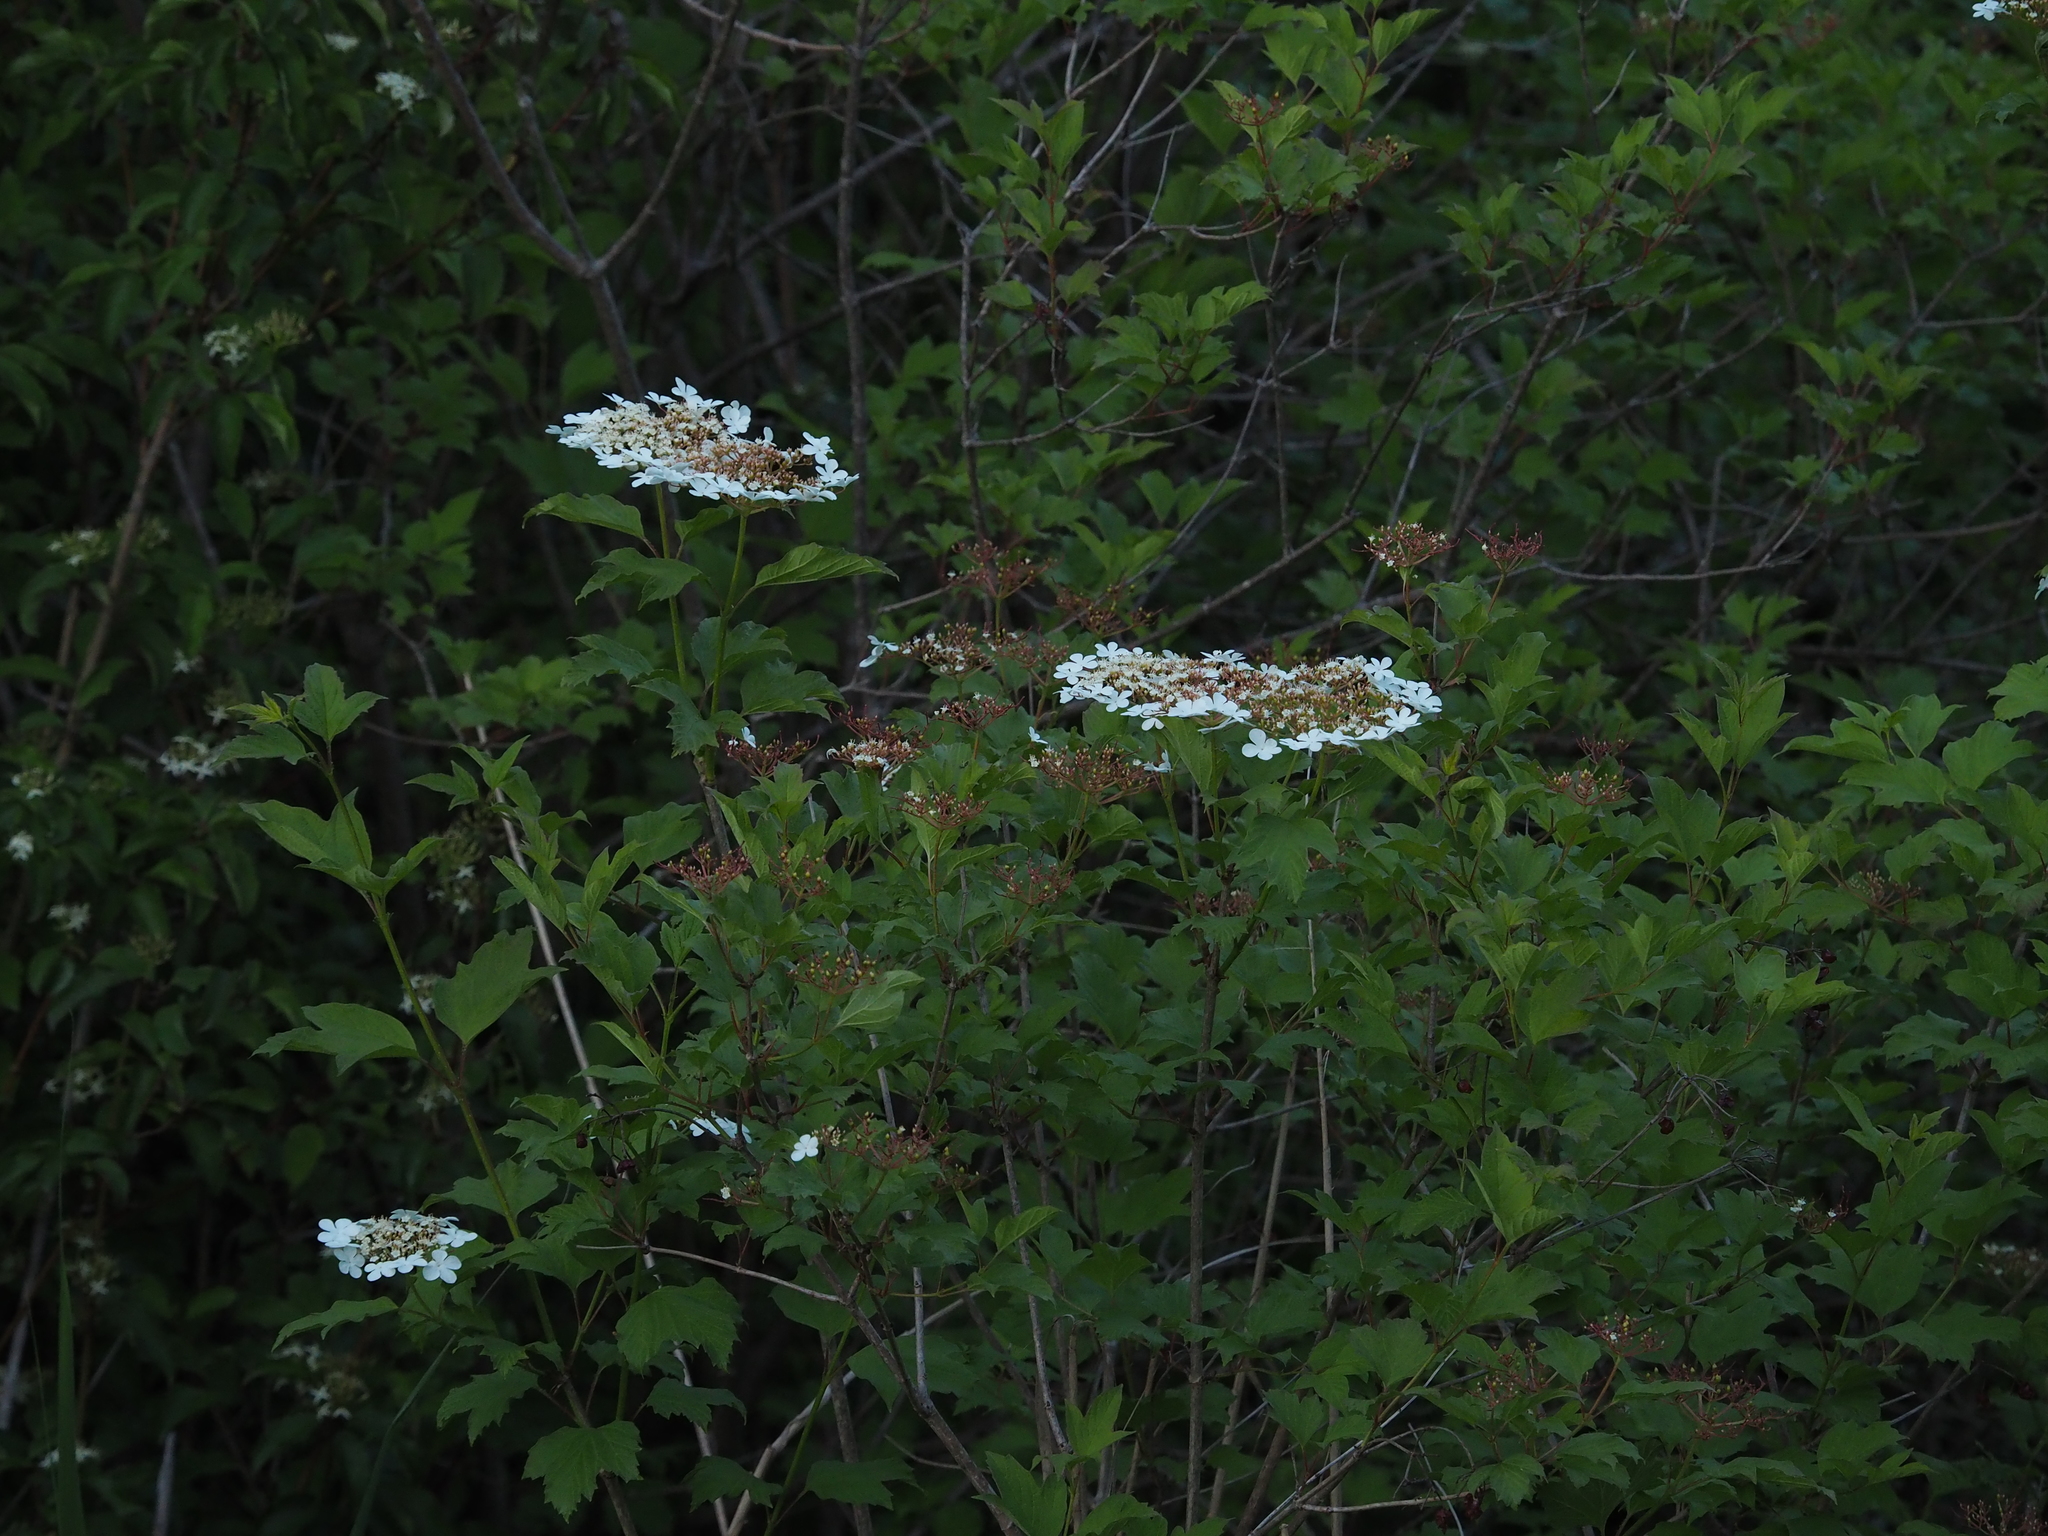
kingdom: Plantae
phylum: Tracheophyta
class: Magnoliopsida
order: Dipsacales
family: Viburnaceae
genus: Viburnum
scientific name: Viburnum opulus
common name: Guelder-rose
